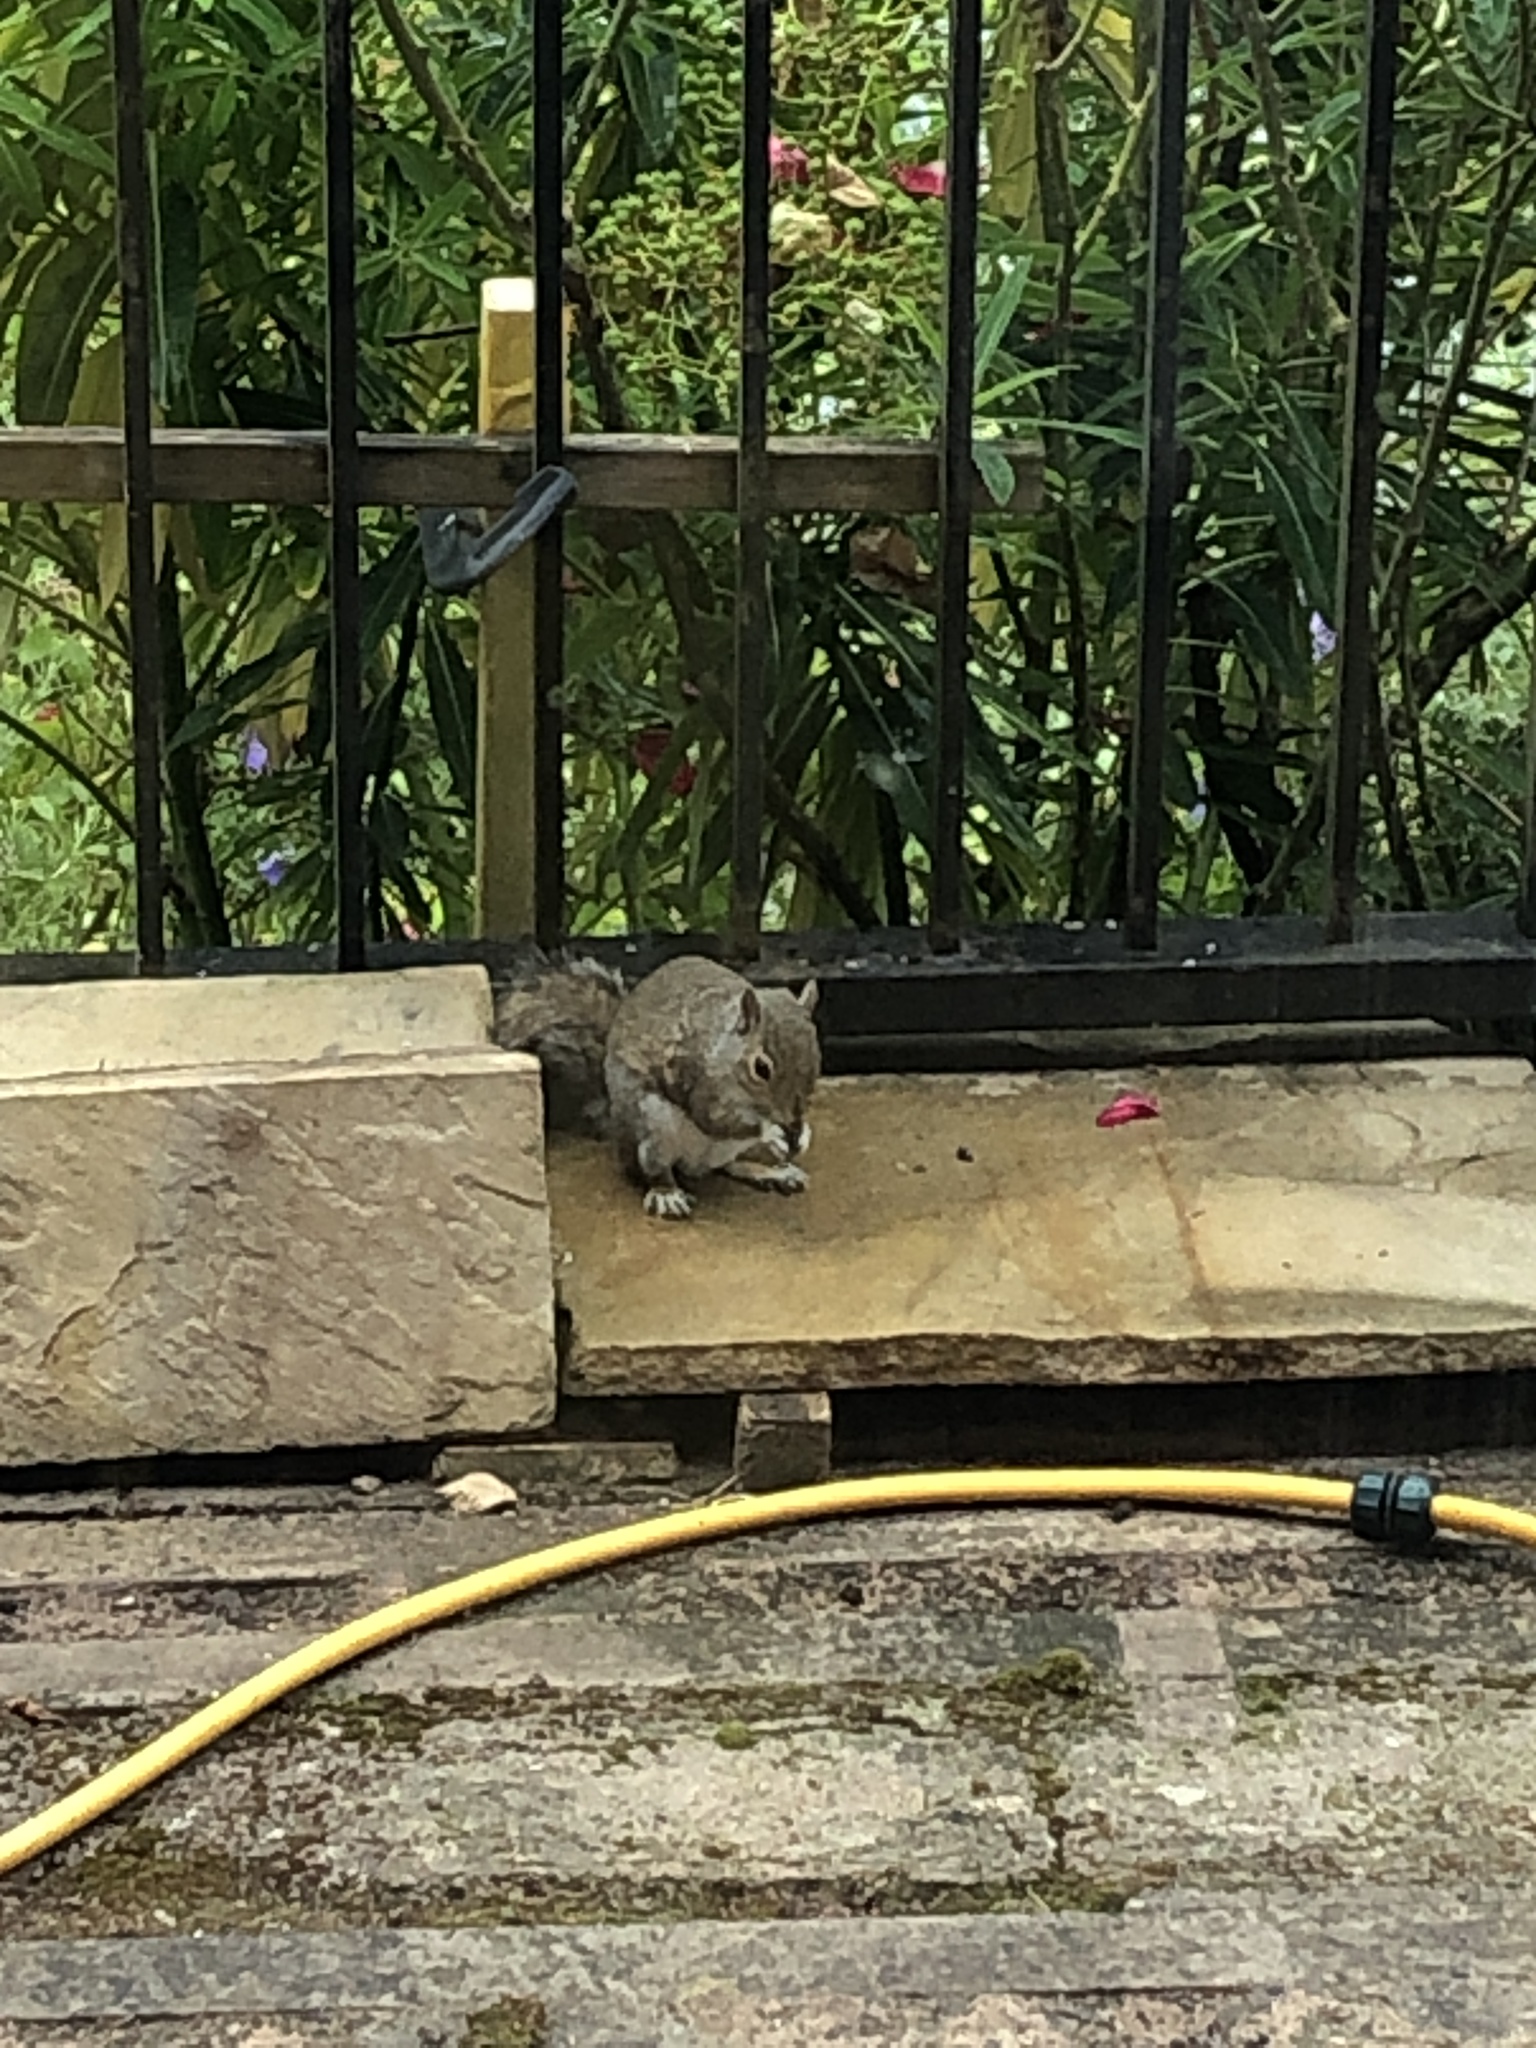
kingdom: Animalia
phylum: Chordata
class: Mammalia
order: Rodentia
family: Sciuridae
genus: Sciurus
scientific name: Sciurus carolinensis
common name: Eastern gray squirrel
